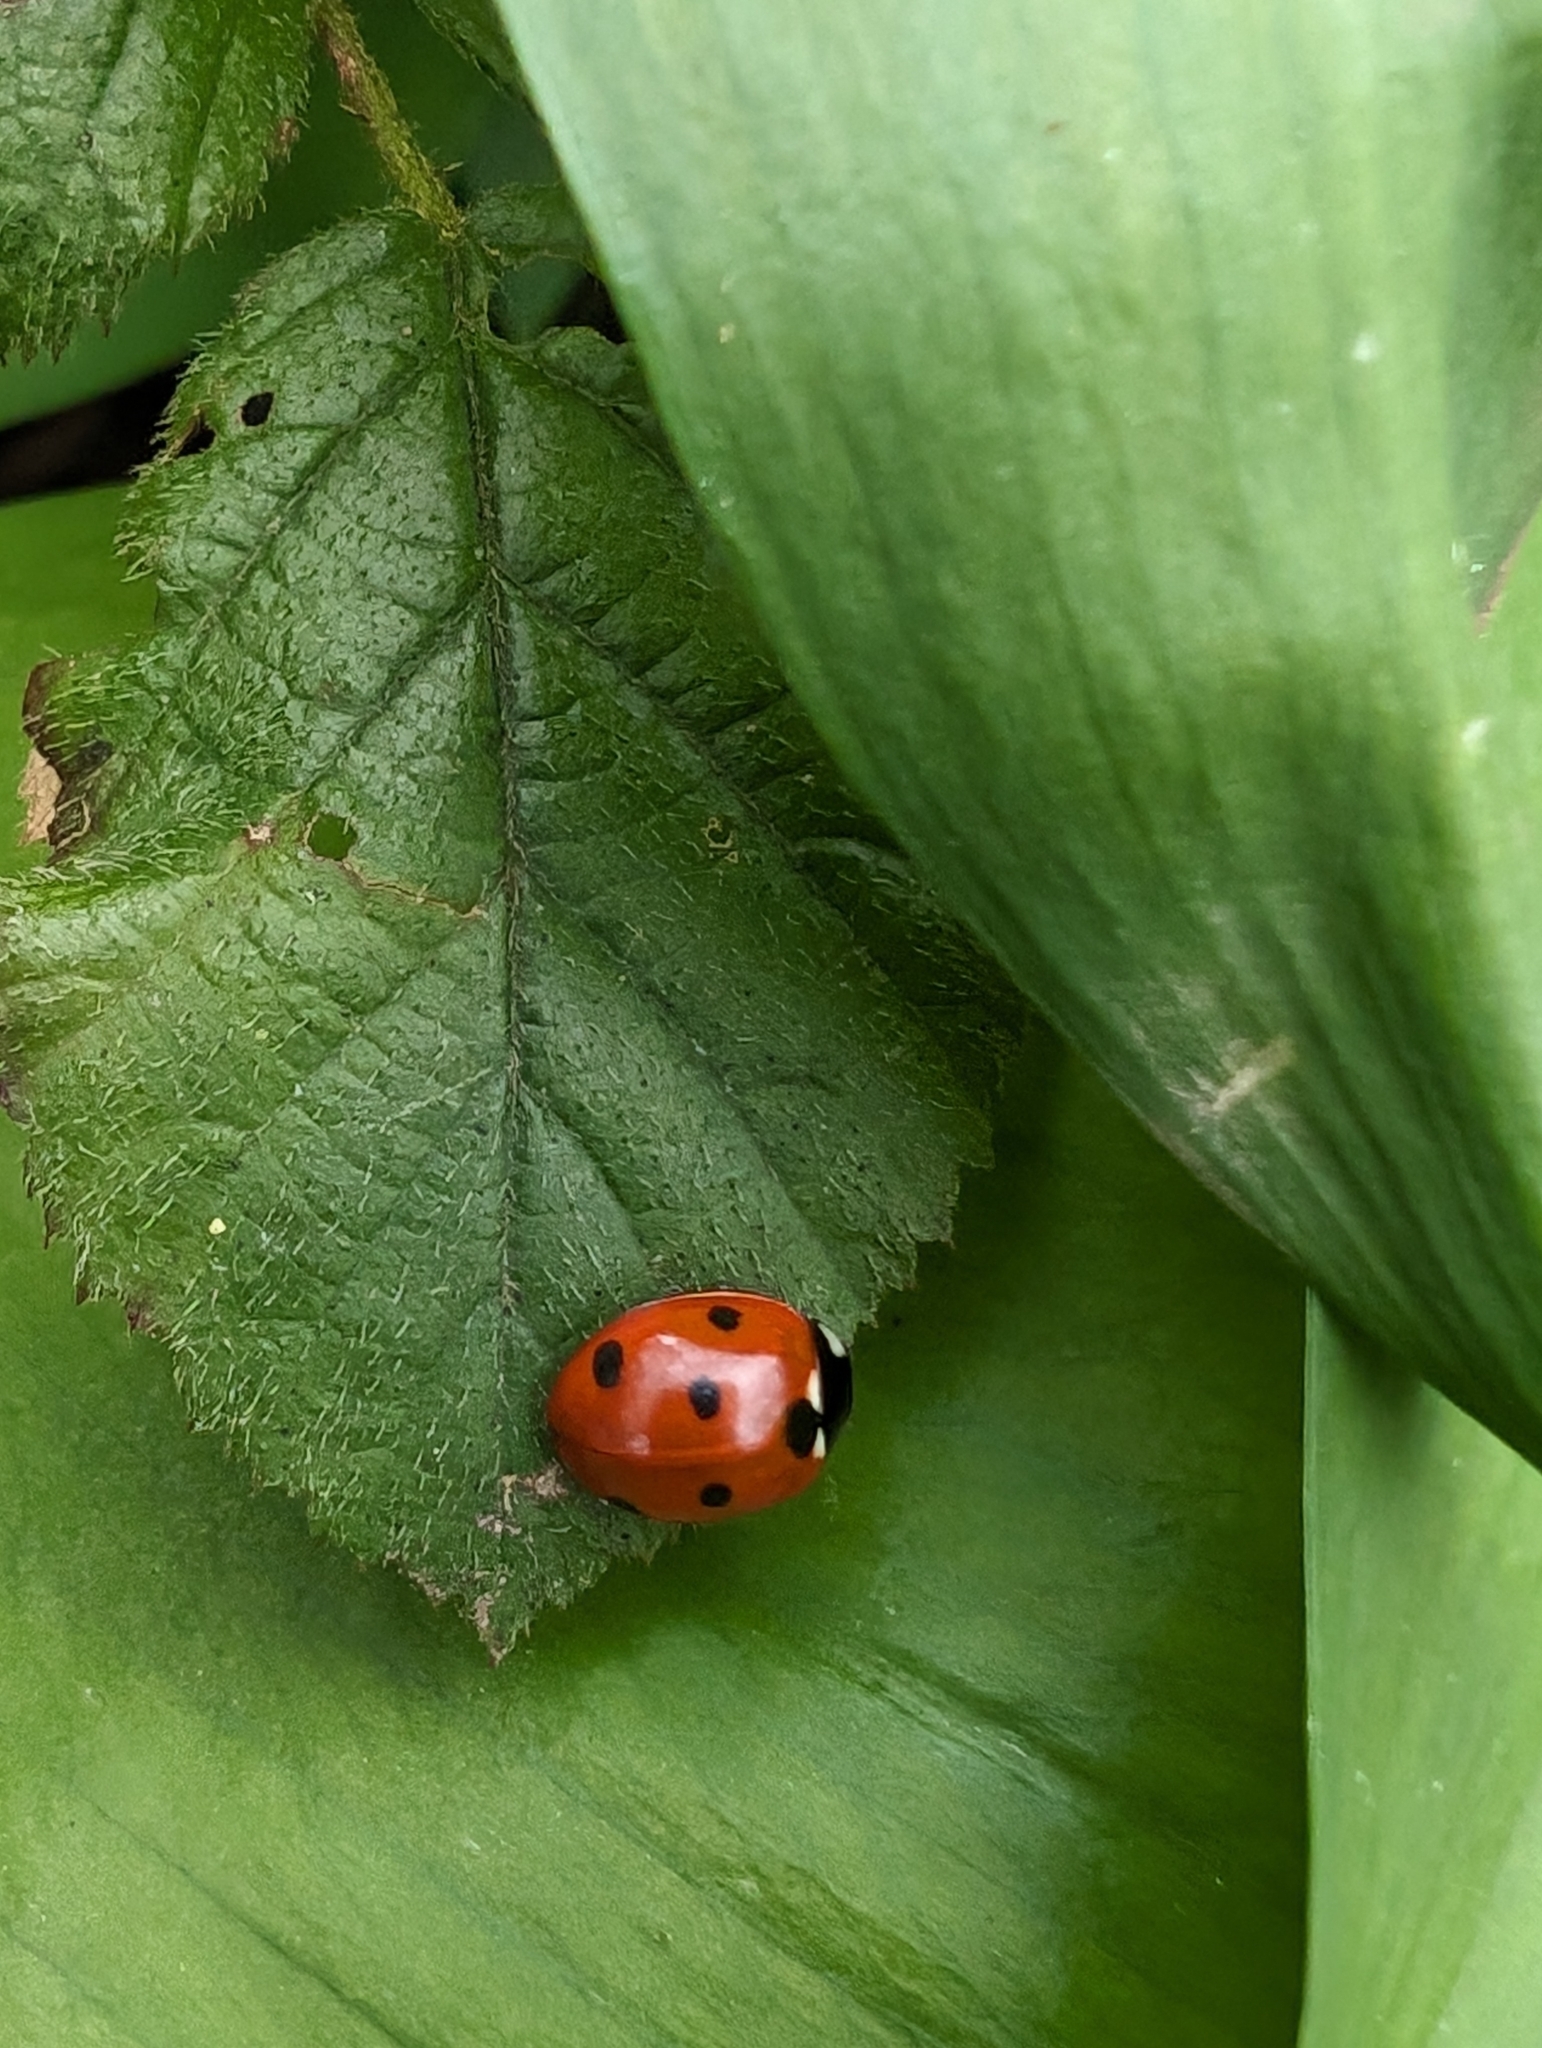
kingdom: Animalia
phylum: Arthropoda
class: Insecta
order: Coleoptera
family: Coccinellidae
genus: Coccinella
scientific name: Coccinella septempunctata
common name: Sevenspotted lady beetle
